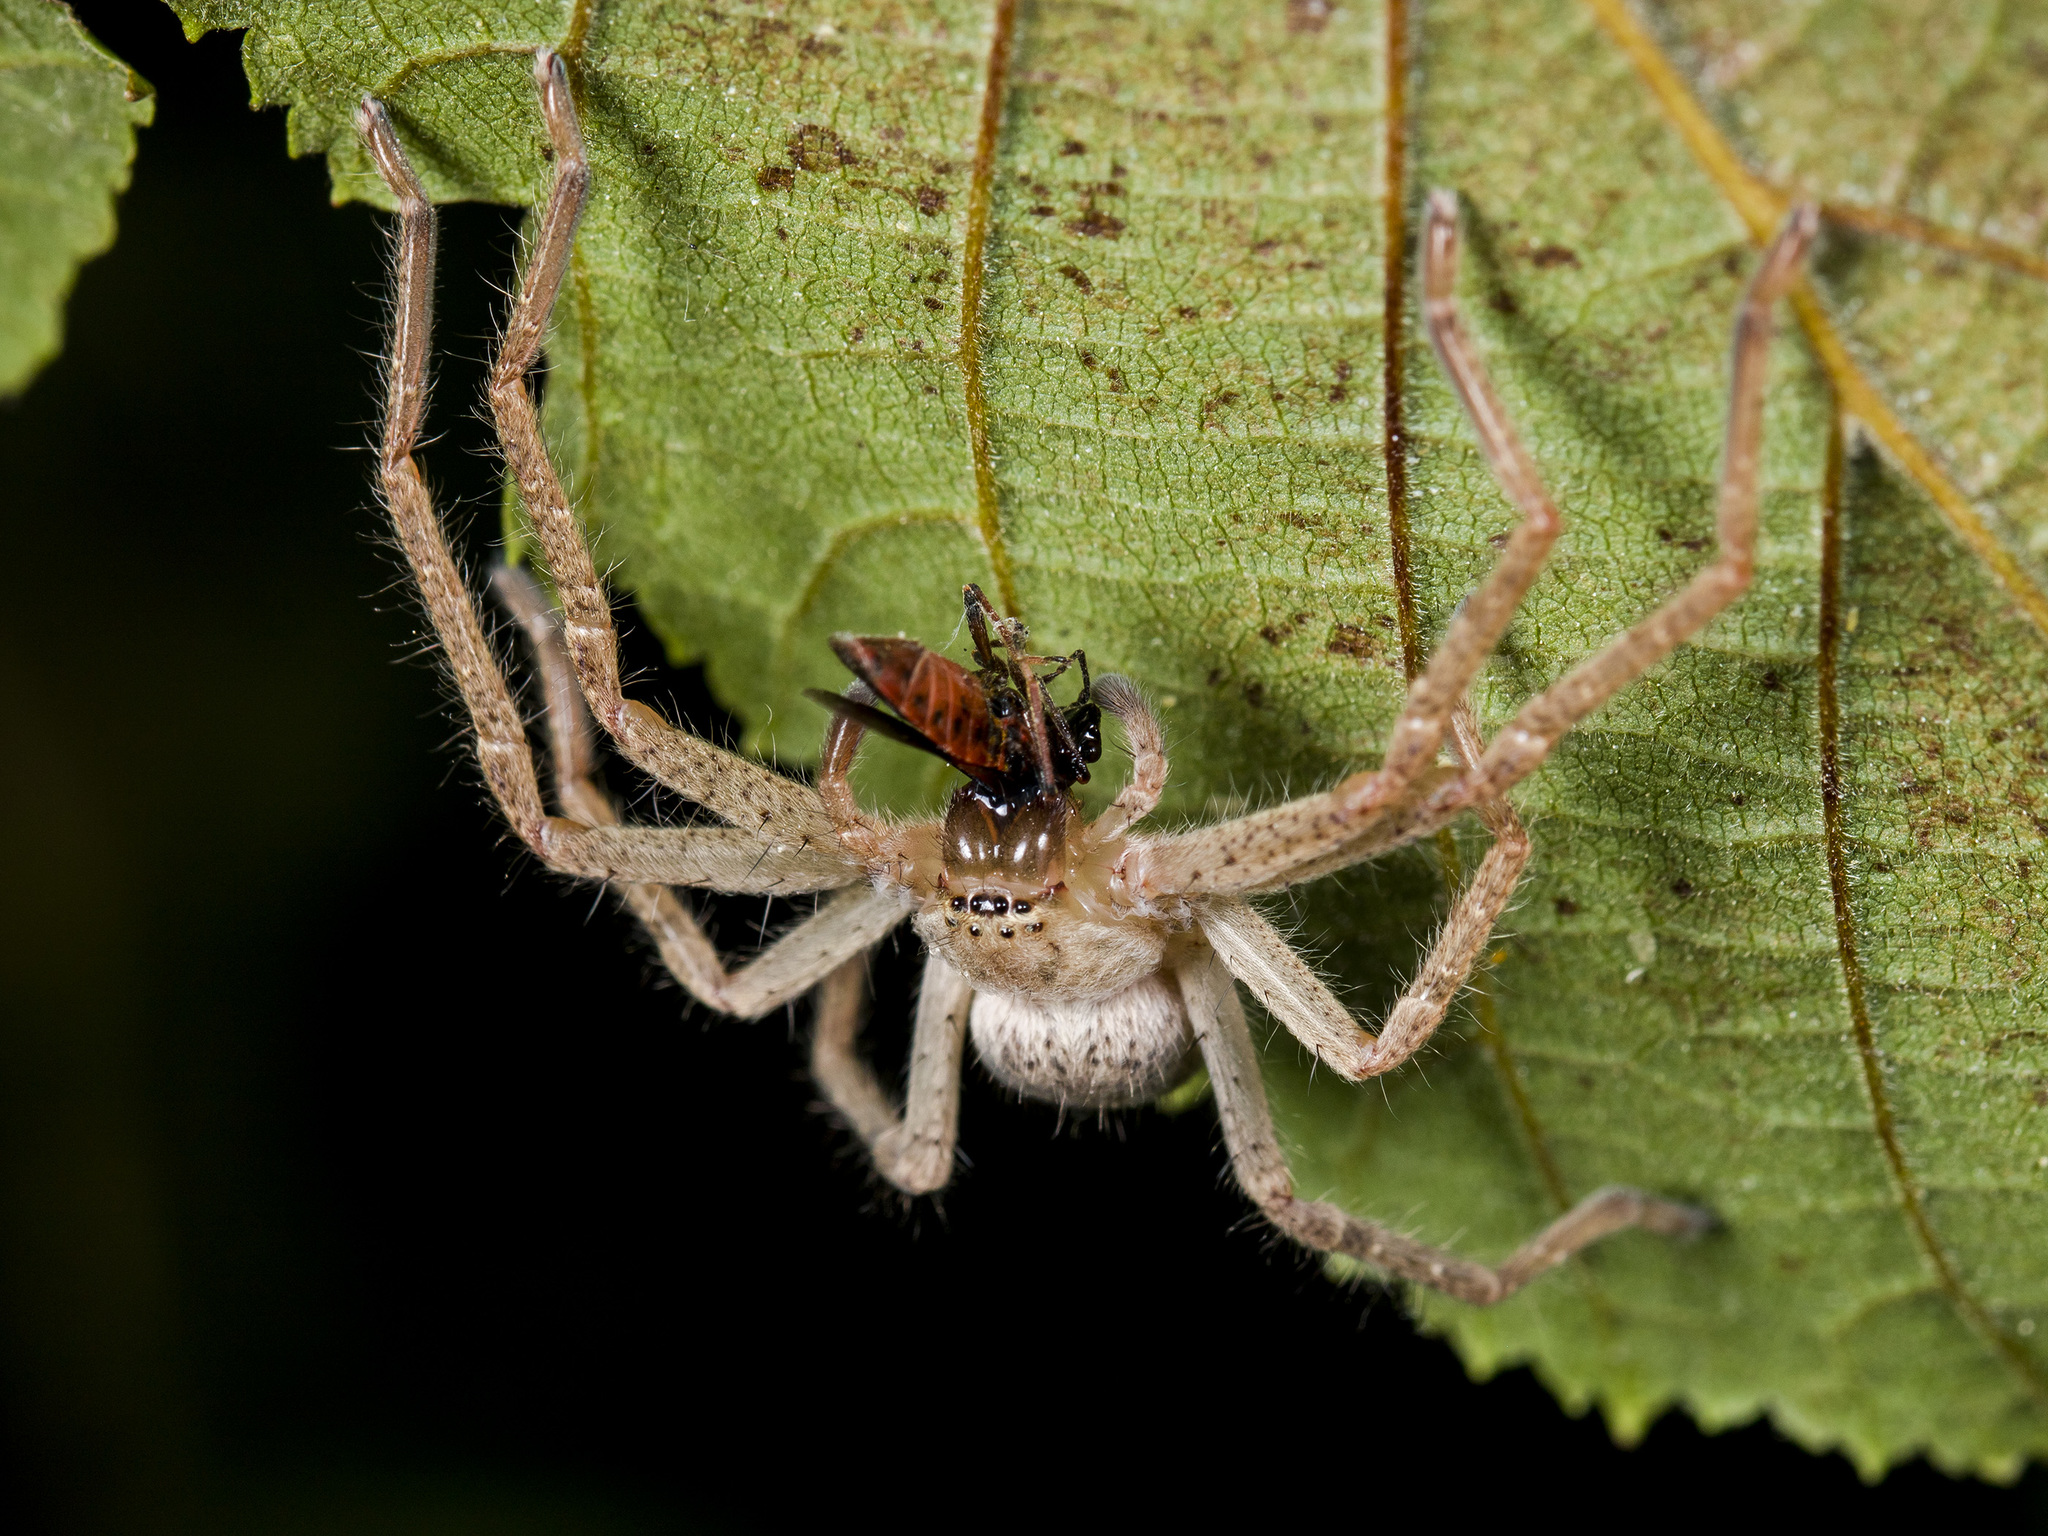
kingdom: Animalia
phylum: Arthropoda
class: Arachnida
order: Araneae
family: Sparassidae
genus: Olios
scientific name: Olios sericeus
